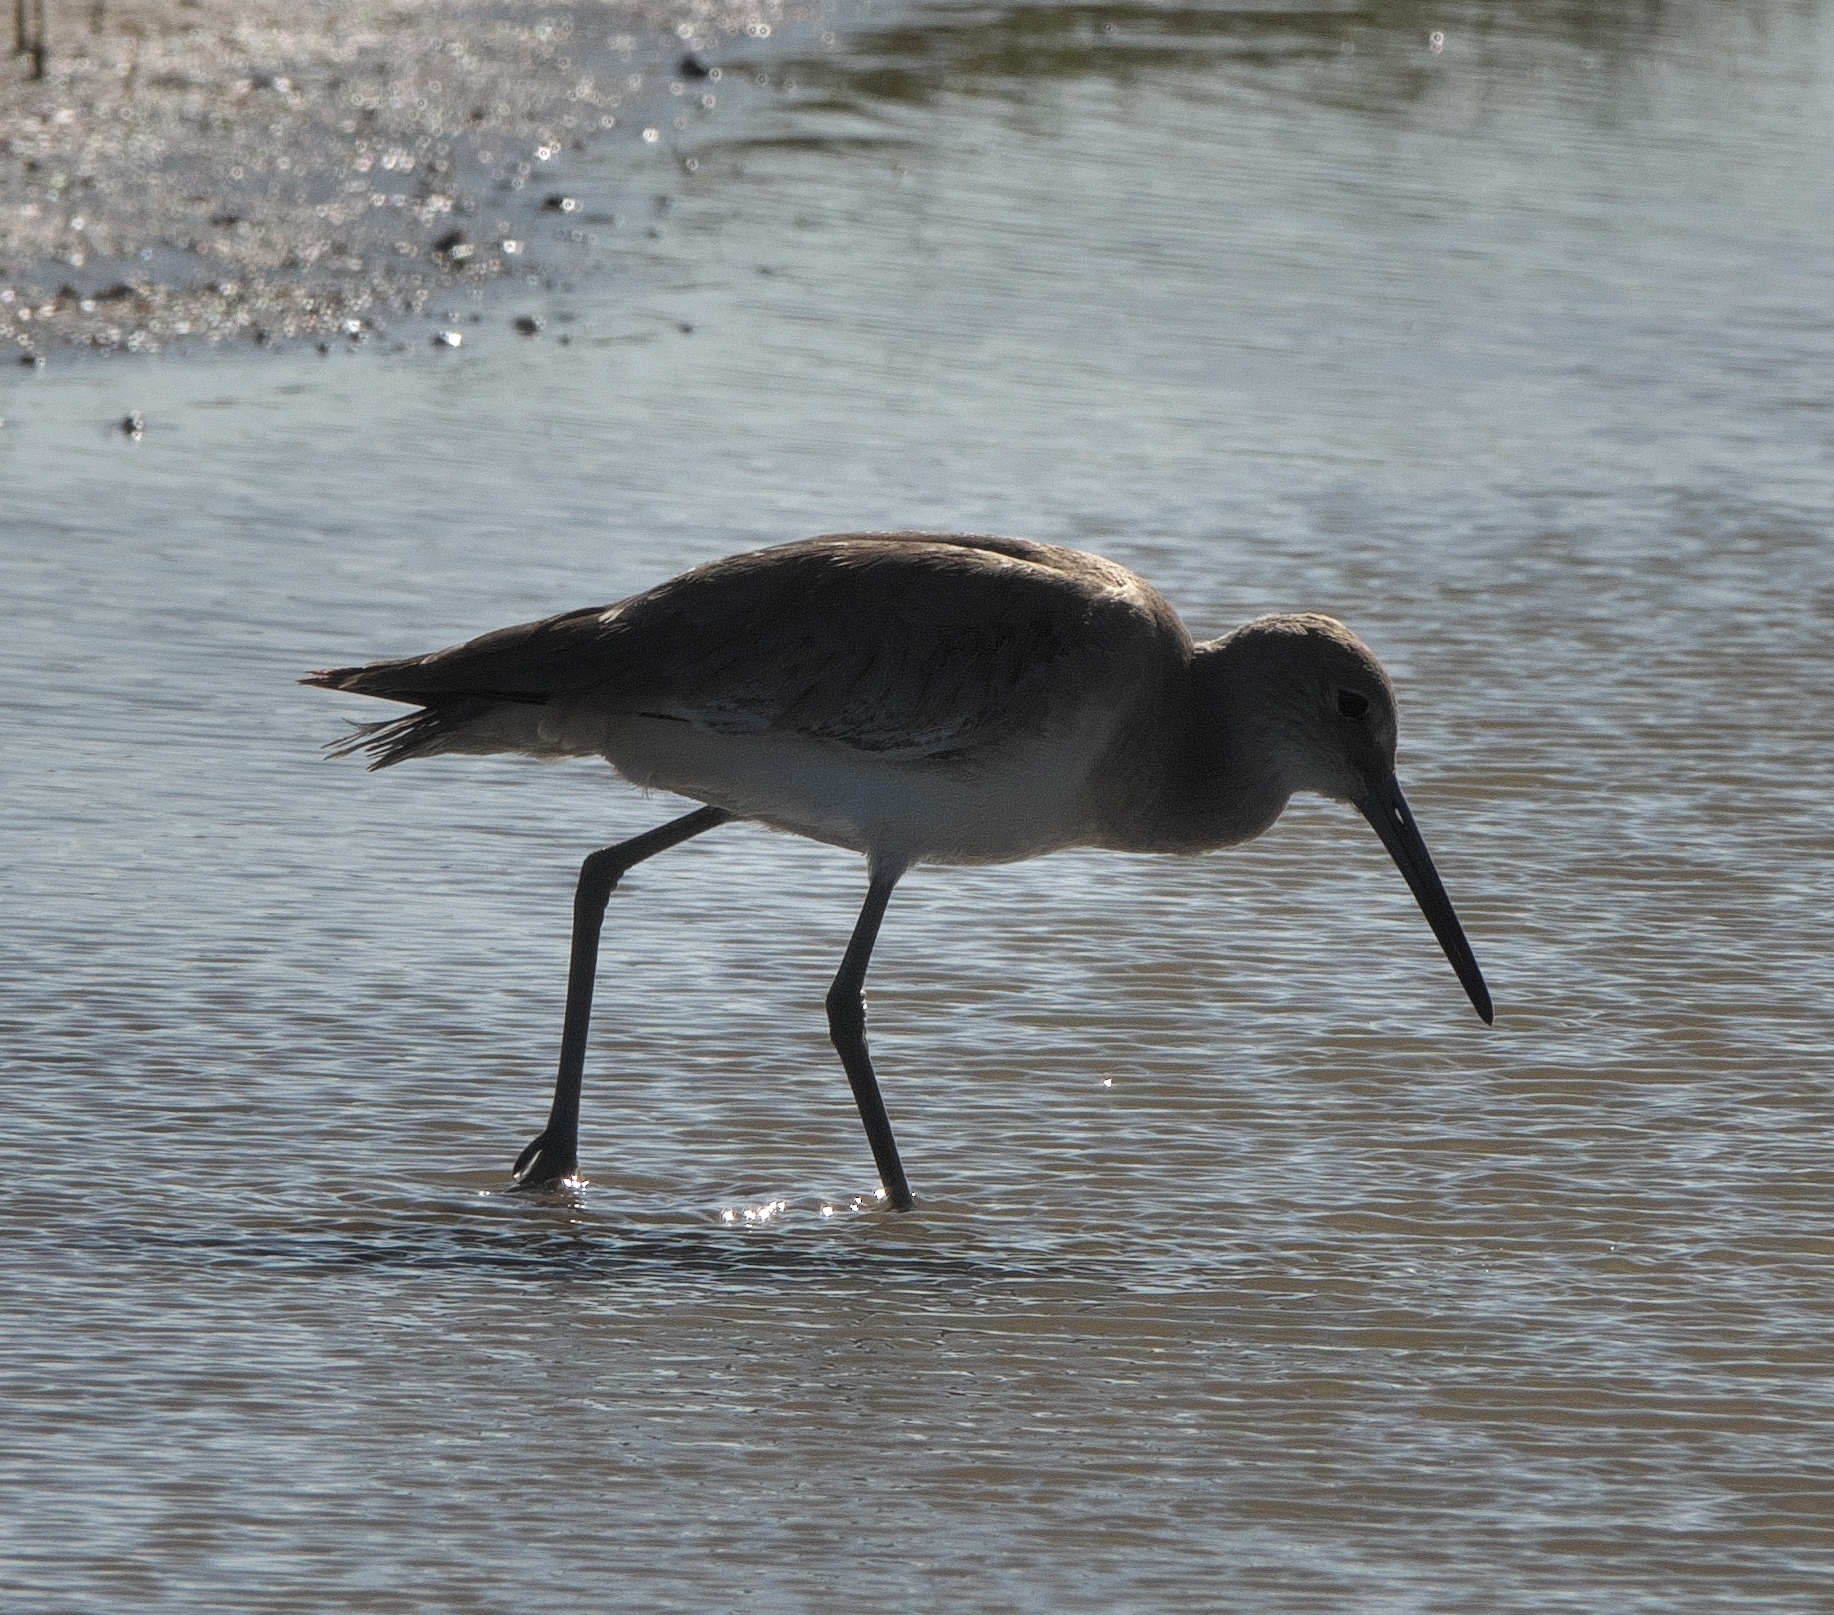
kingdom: Animalia
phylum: Chordata
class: Aves
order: Charadriiformes
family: Scolopacidae
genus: Tringa
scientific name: Tringa semipalmata
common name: Willet
